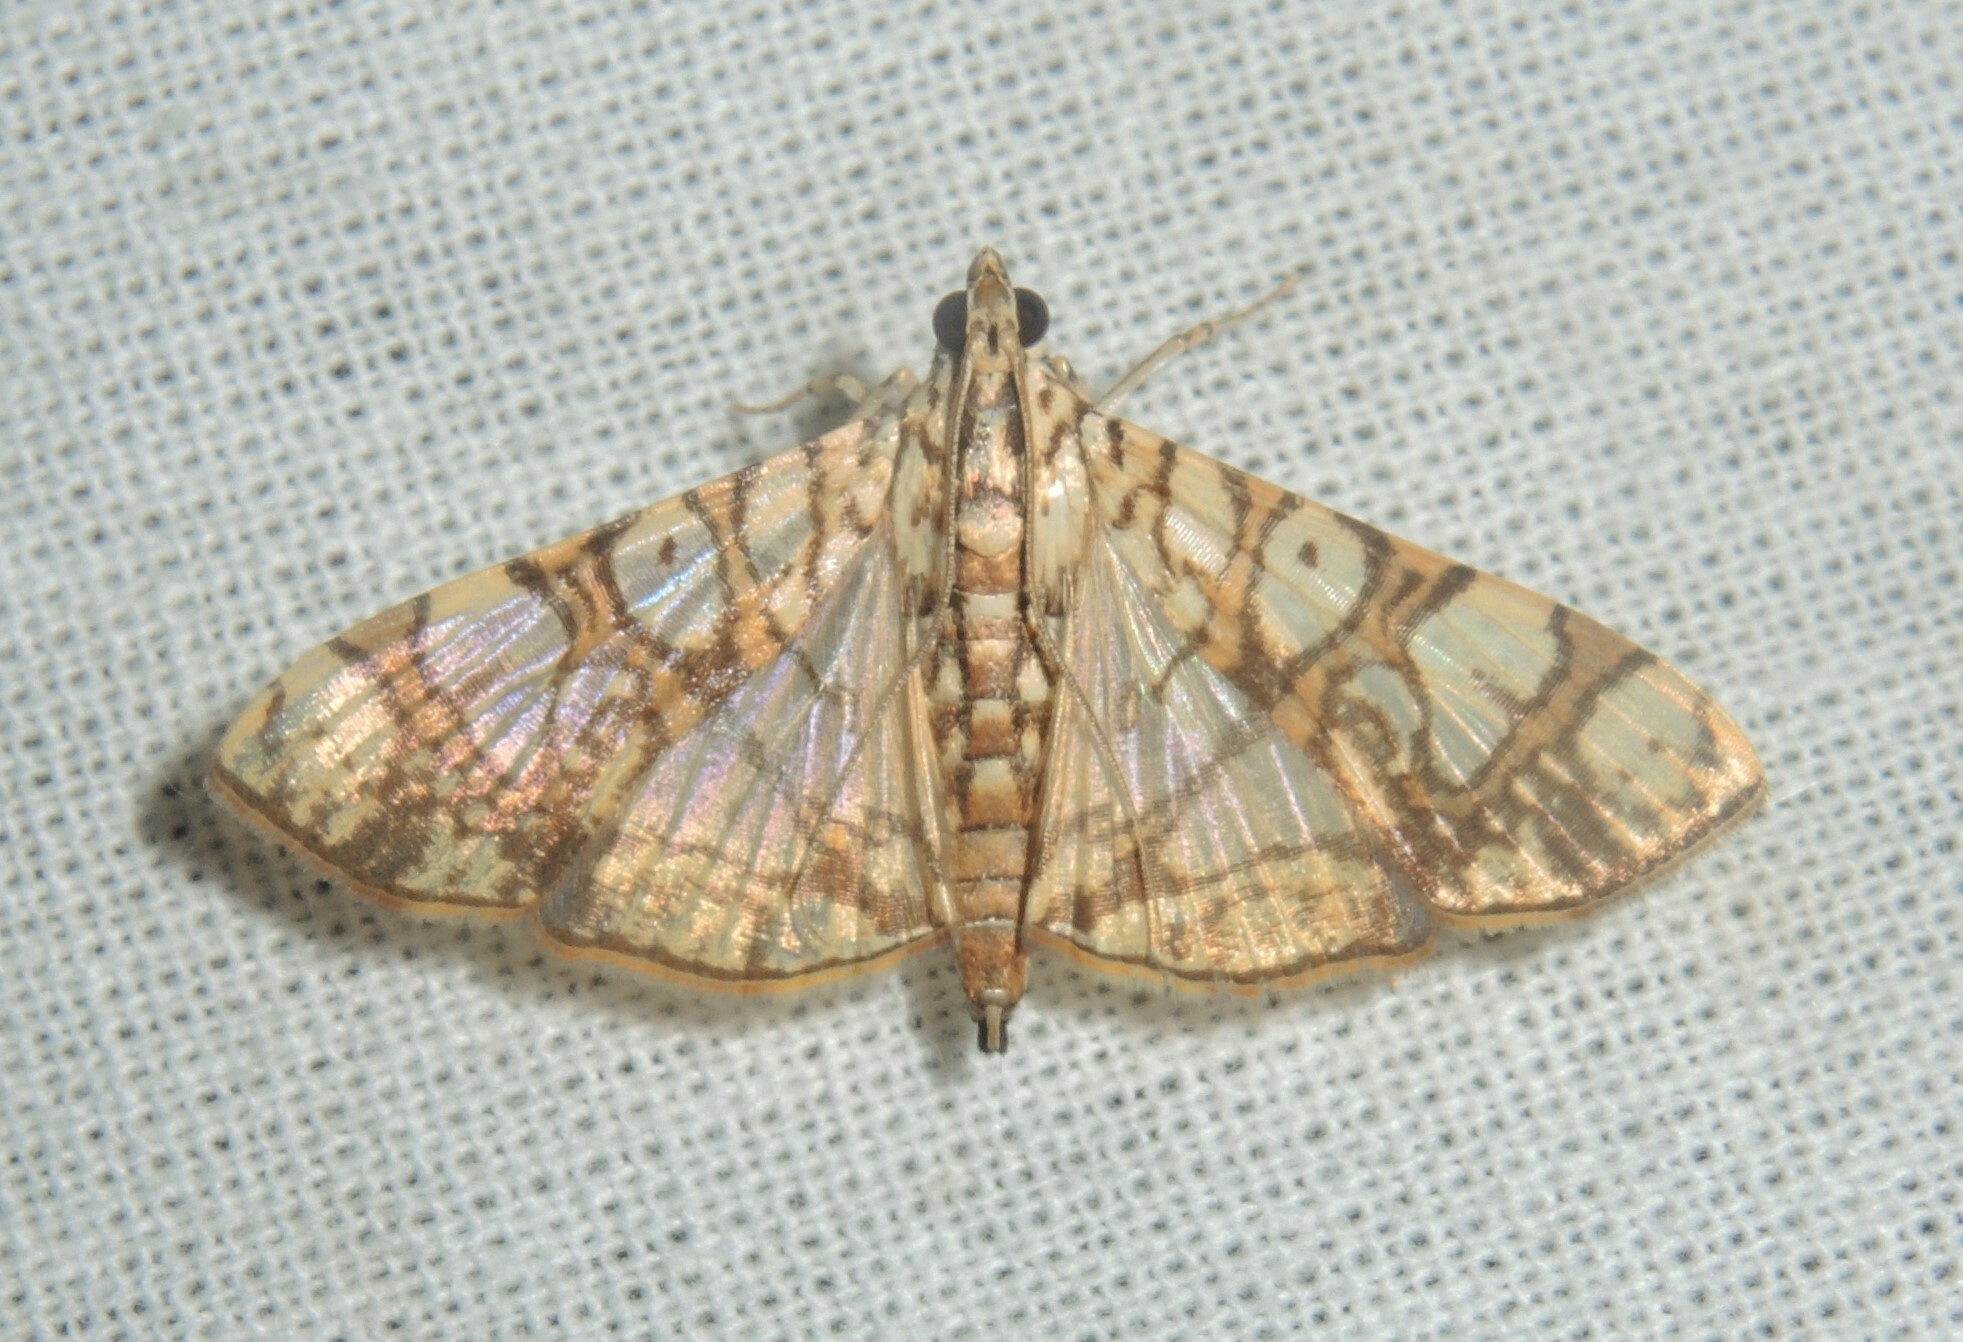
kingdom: Animalia
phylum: Arthropoda
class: Insecta
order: Lepidoptera
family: Crambidae
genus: Glyphodes
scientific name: Glyphodes caesalis
